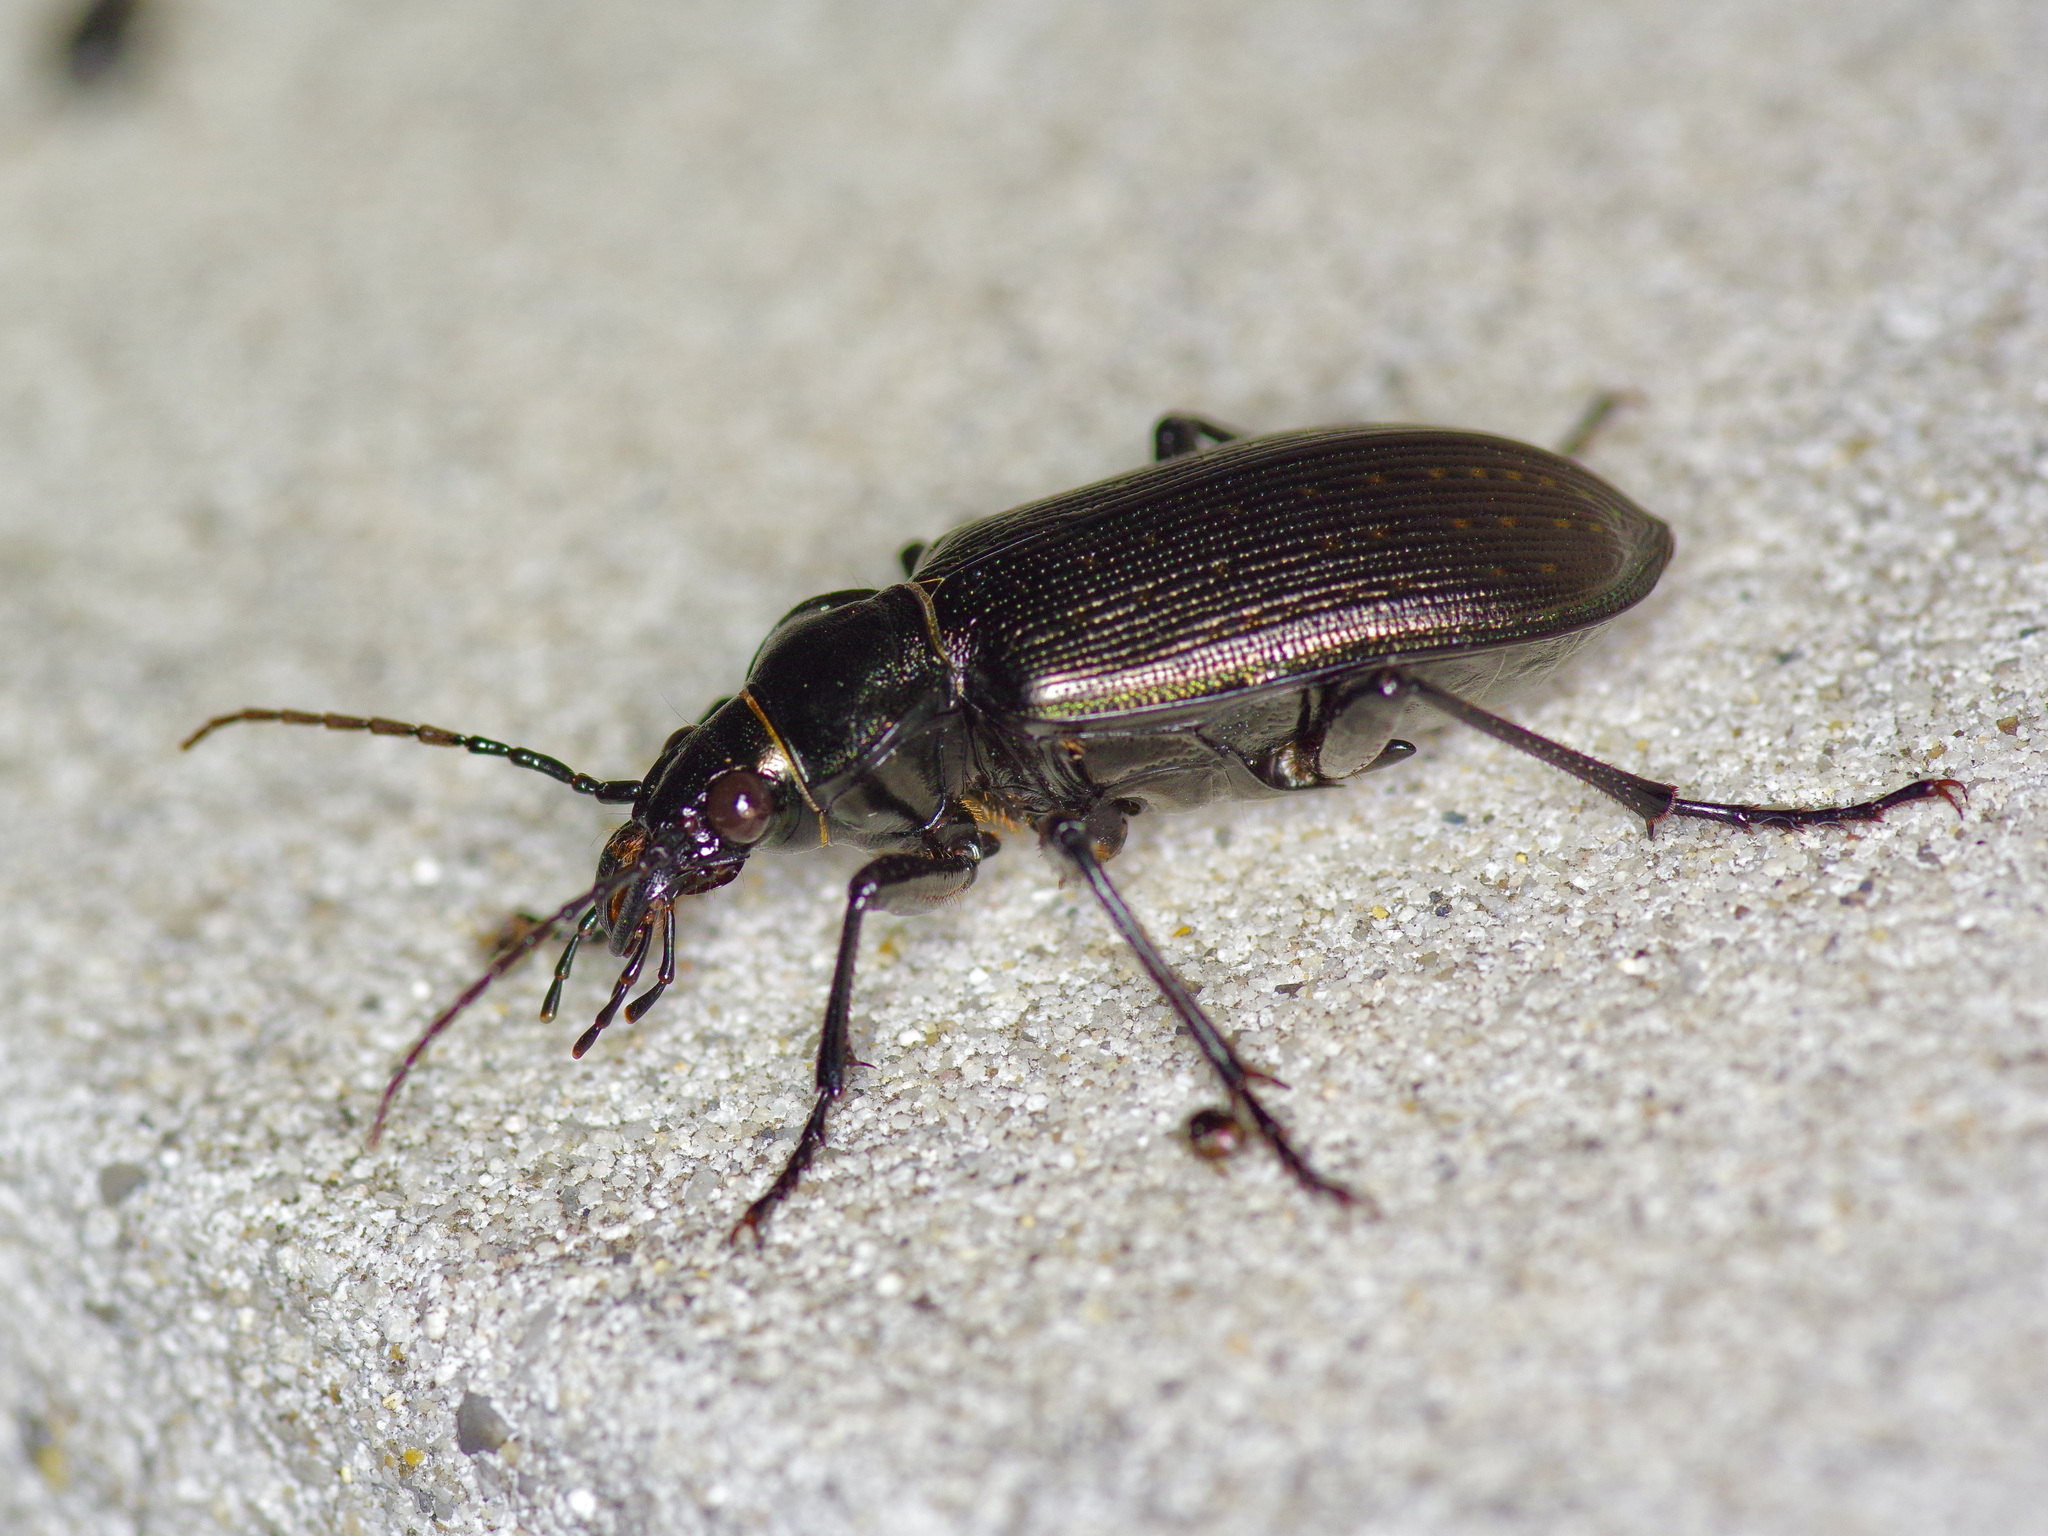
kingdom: Animalia
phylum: Arthropoda
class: Insecta
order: Coleoptera
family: Carabidae
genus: Calosoma
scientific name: Calosoma sayi
